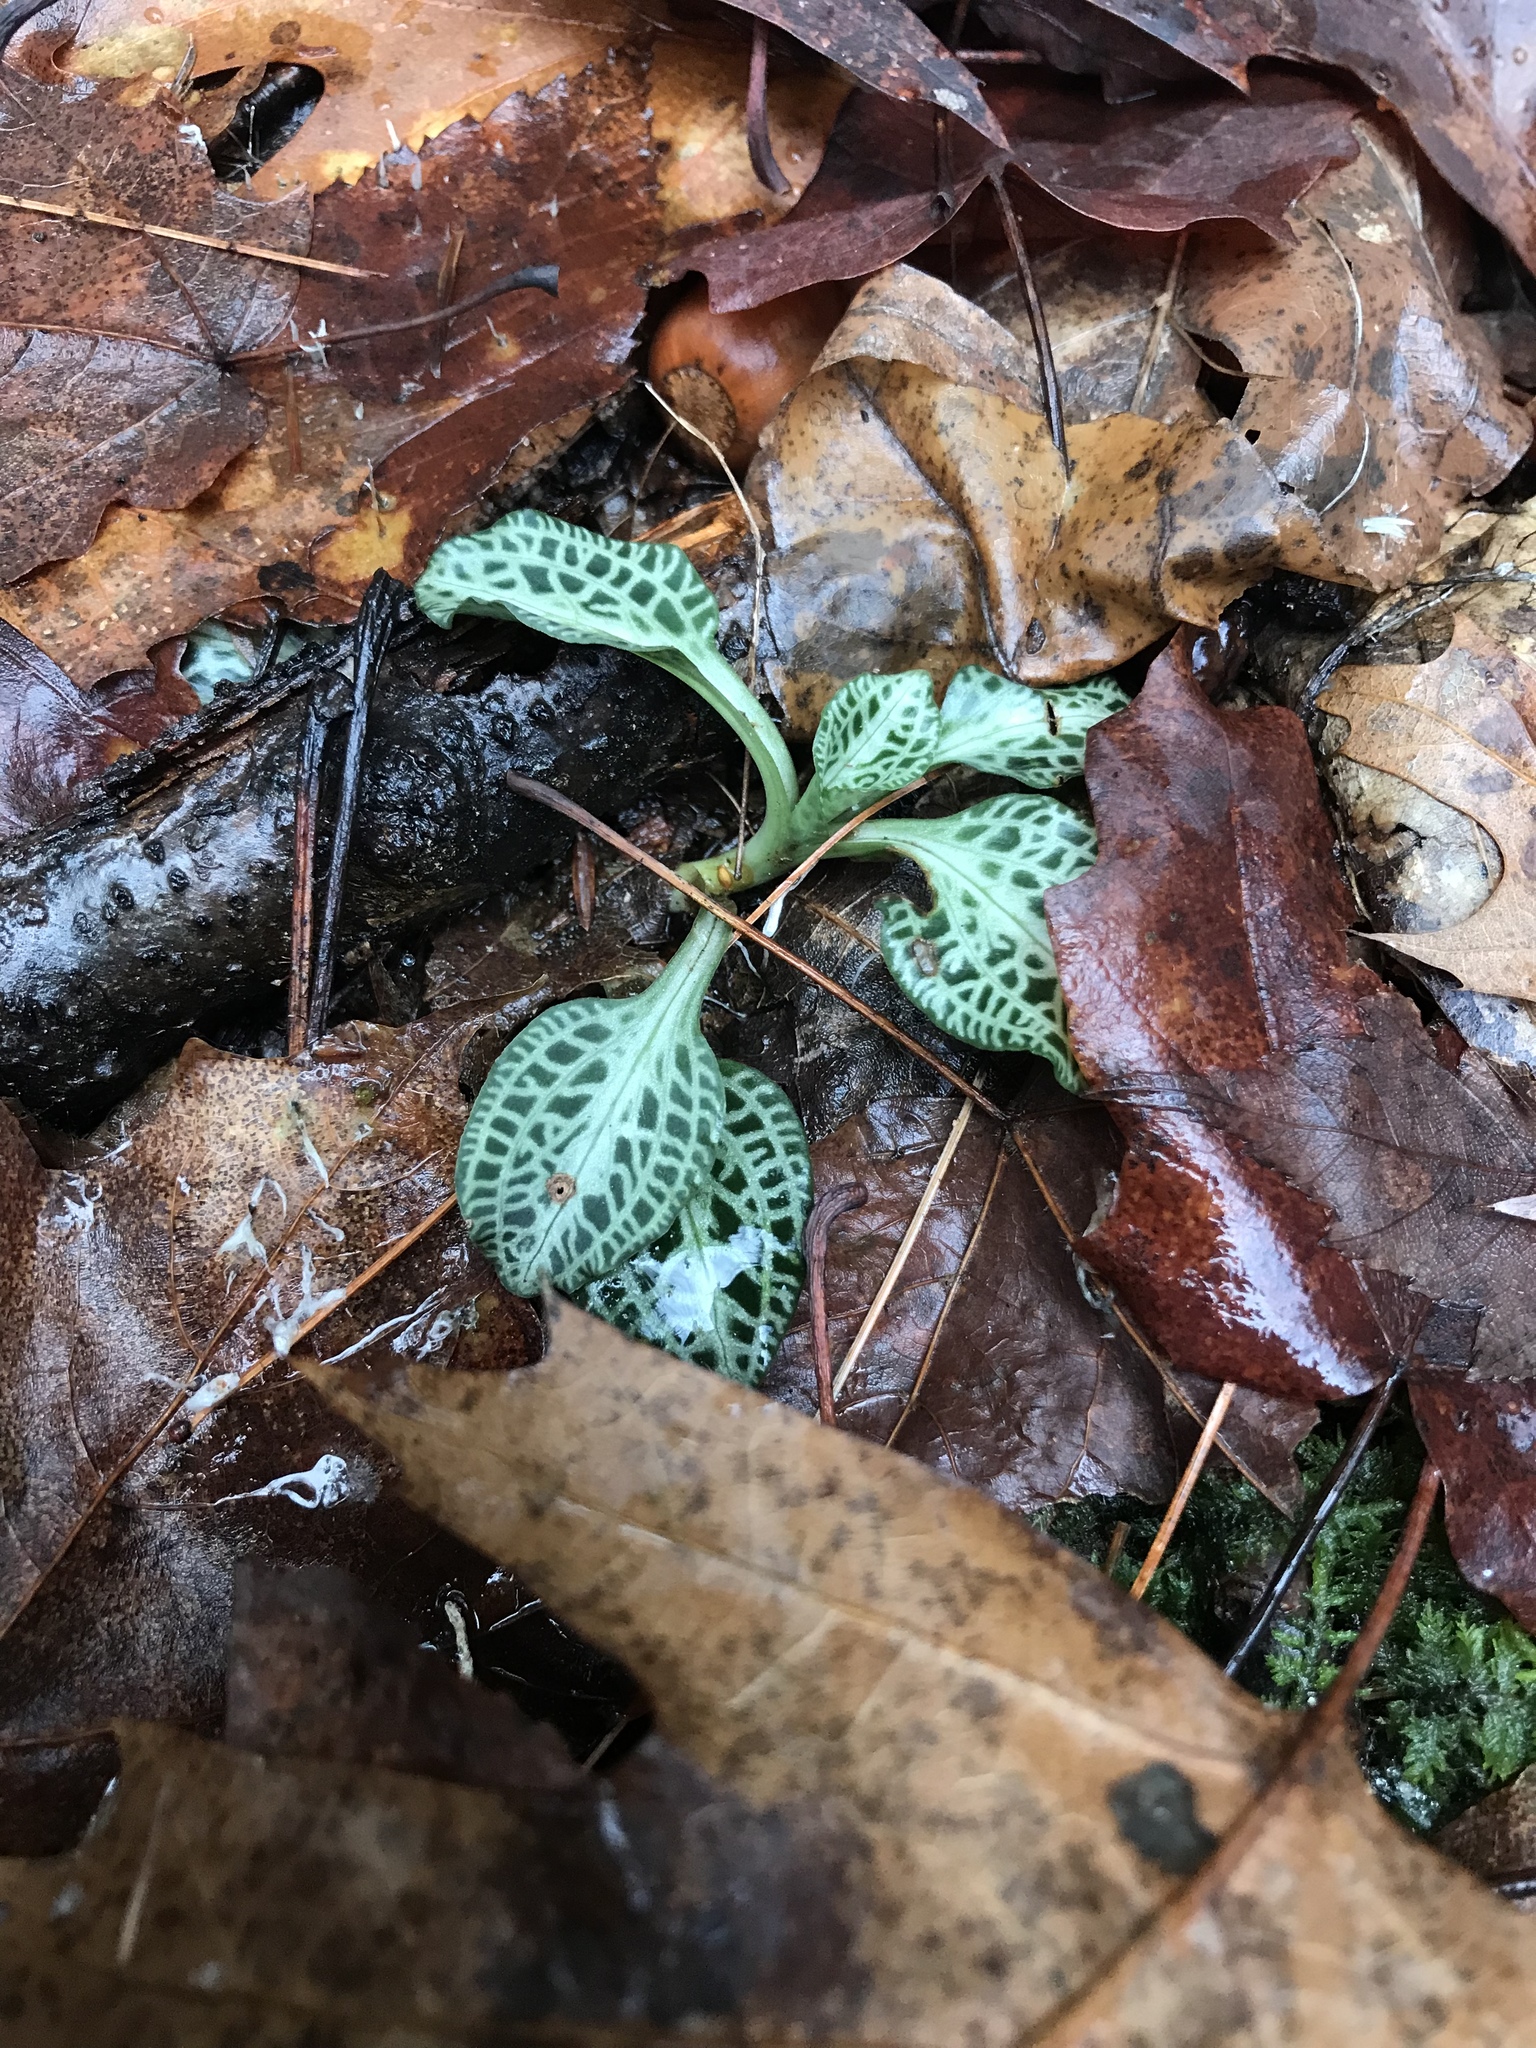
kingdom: Plantae
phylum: Tracheophyta
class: Liliopsida
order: Asparagales
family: Orchidaceae
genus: Goodyera
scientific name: Goodyera pubescens
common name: Downy rattlesnake-plantain
